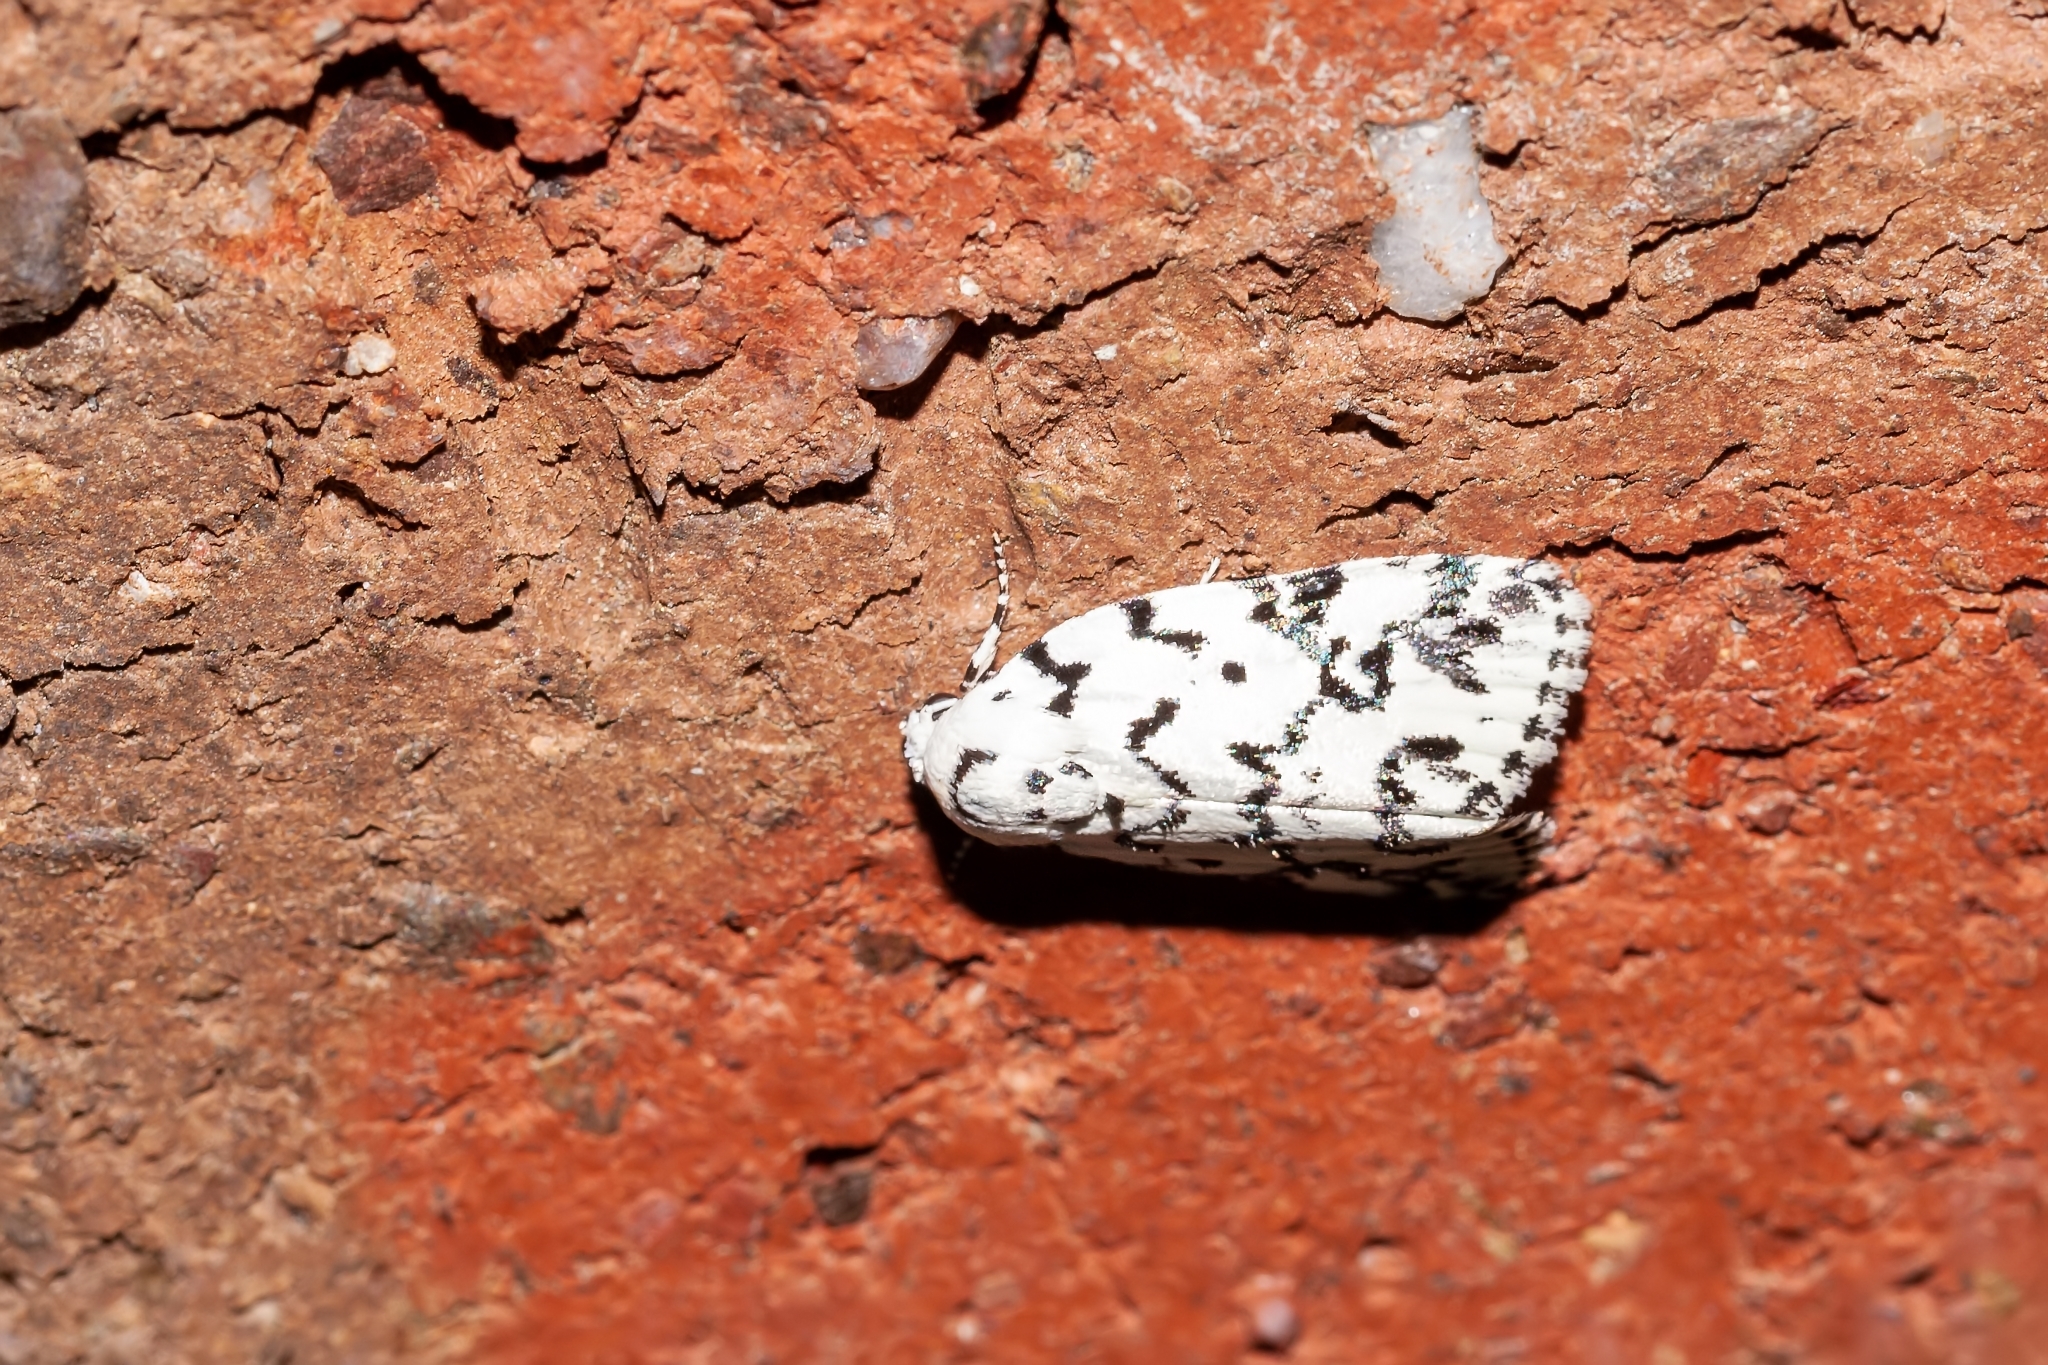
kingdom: Animalia
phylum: Arthropoda
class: Insecta
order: Lepidoptera
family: Noctuidae
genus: Polygrammate
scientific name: Polygrammate hebraeicum
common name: Hebrew moth
